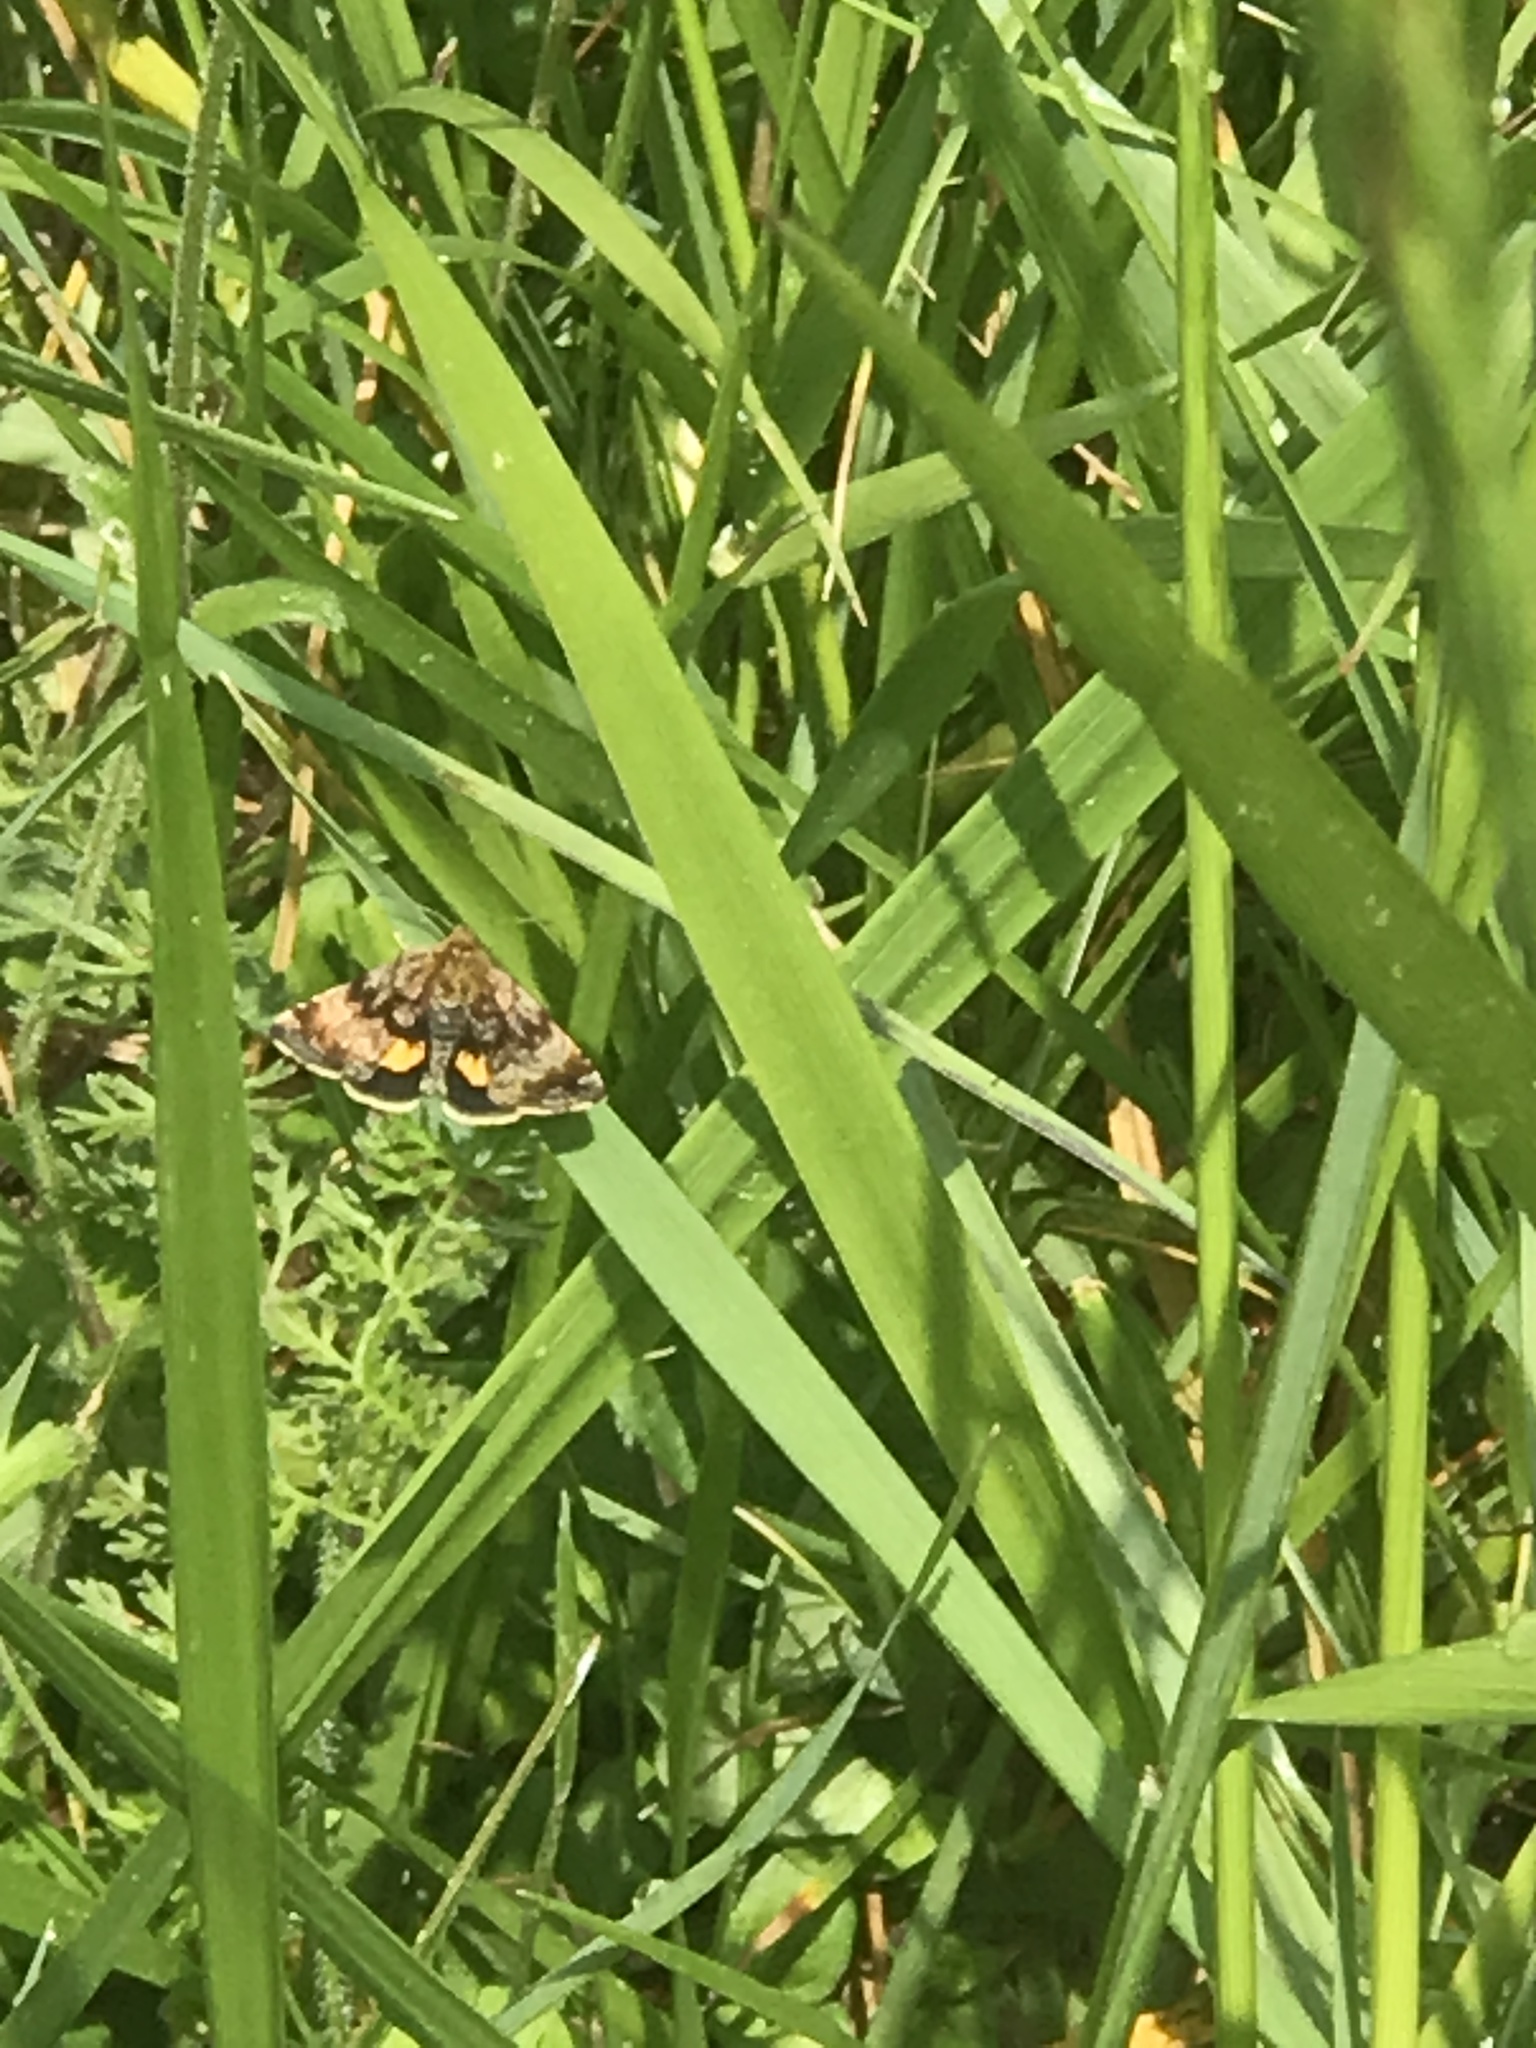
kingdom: Animalia
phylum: Arthropoda
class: Insecta
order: Lepidoptera
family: Noctuidae
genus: Panemeria
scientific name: Panemeria tenebrata
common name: Small yellow underwing
